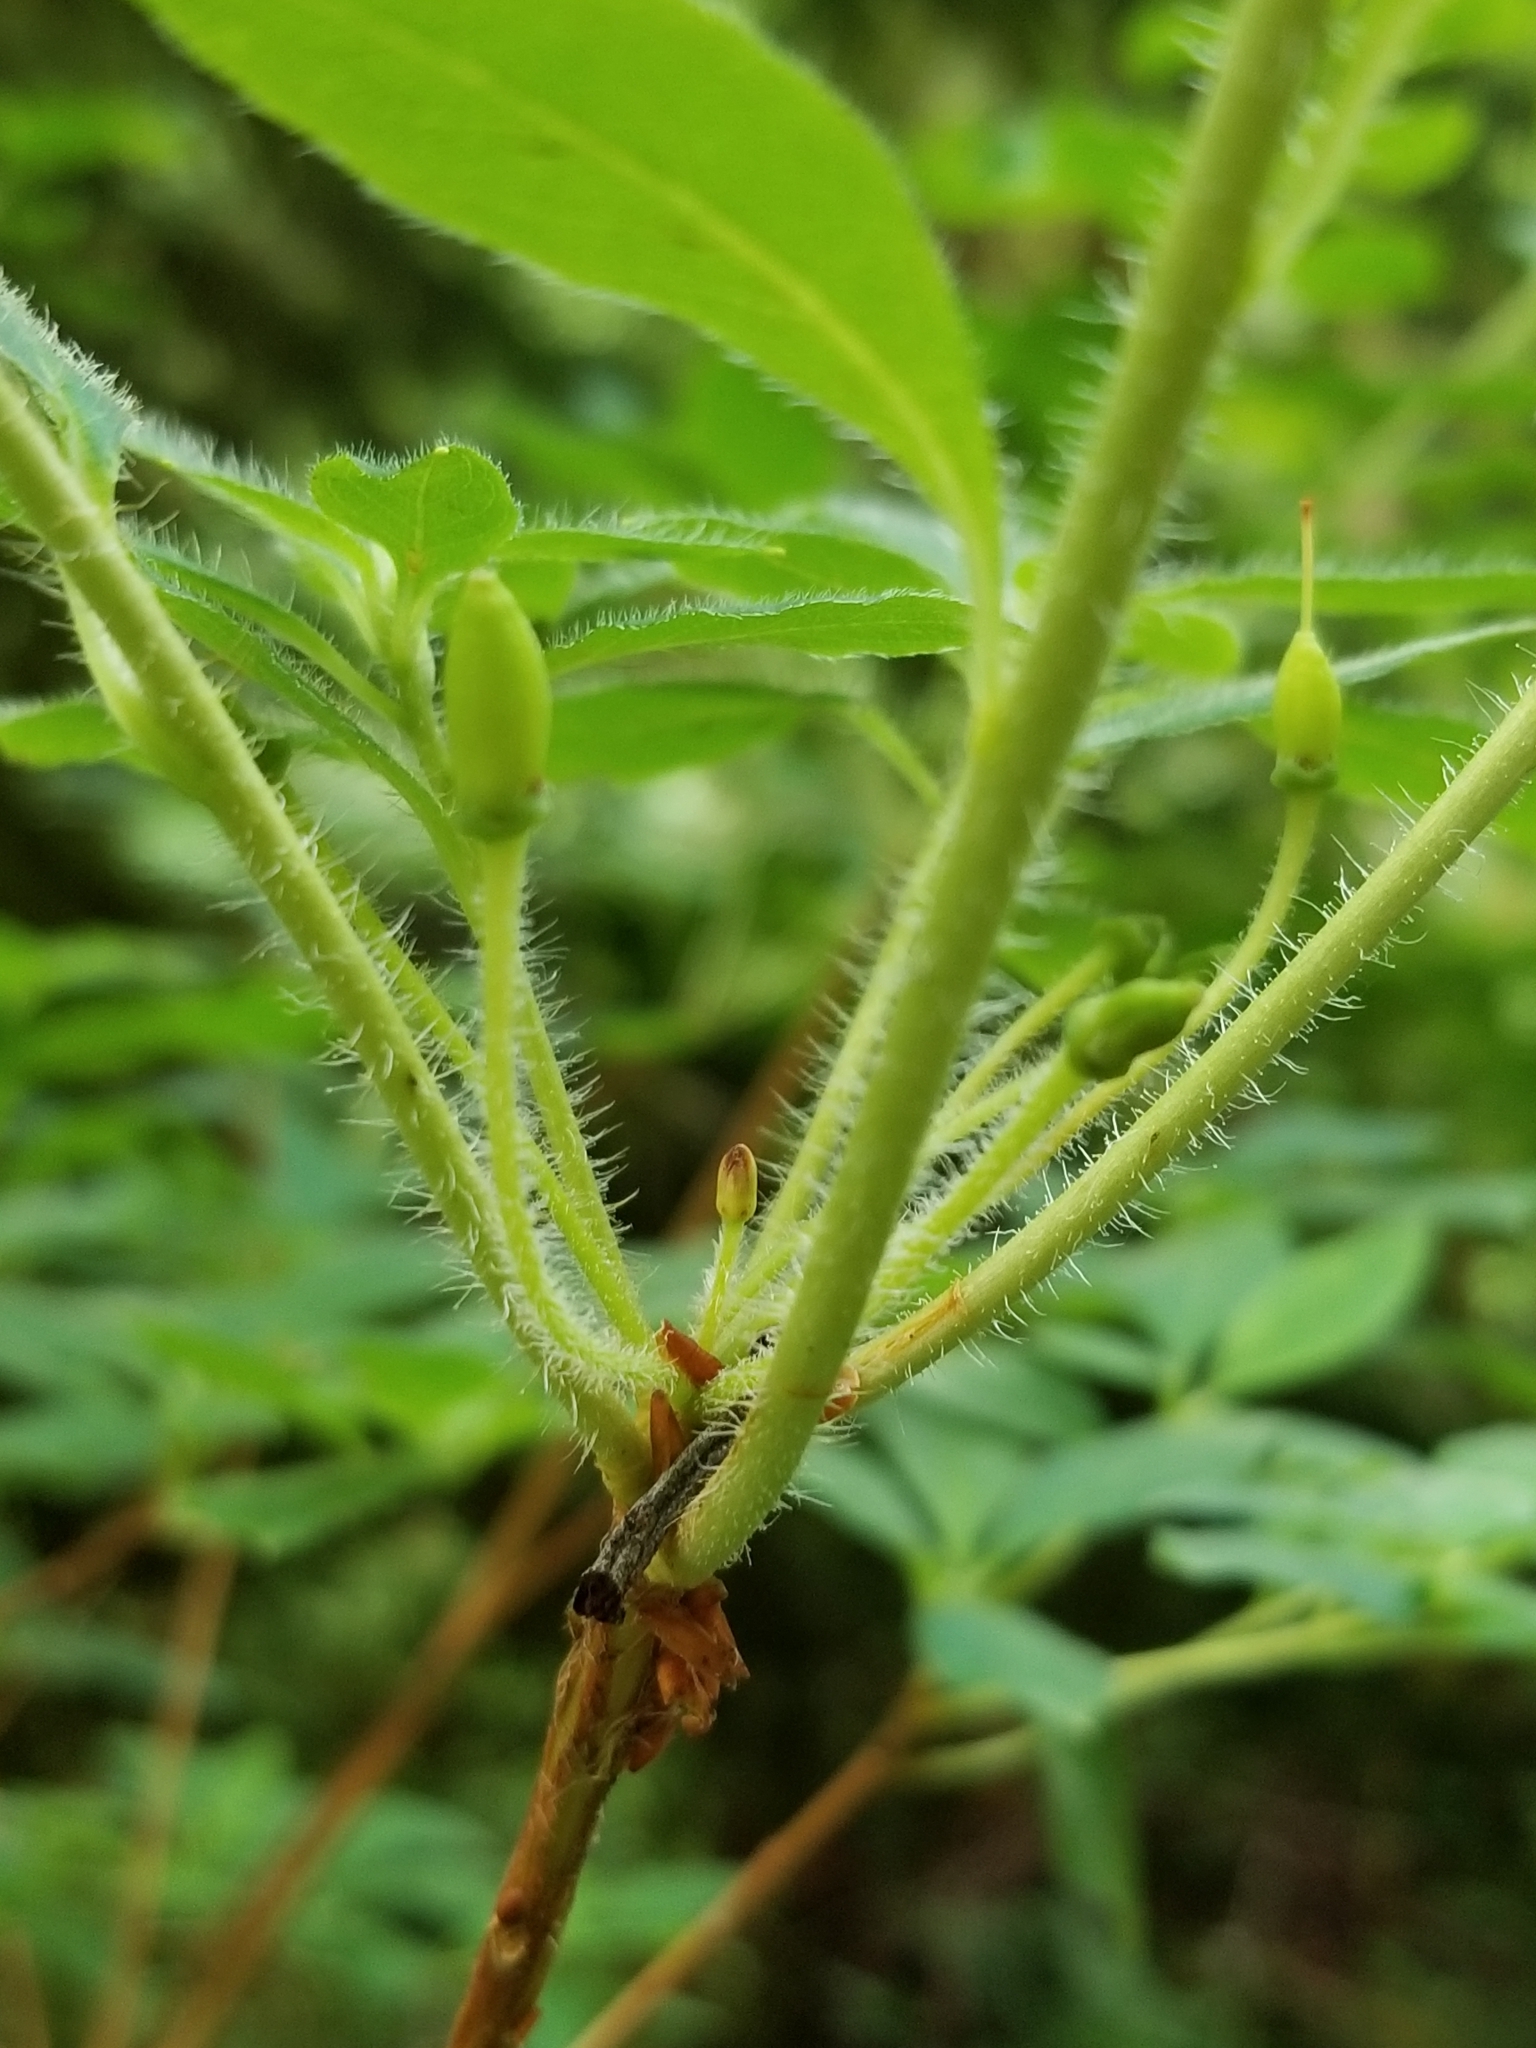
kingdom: Plantae
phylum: Tracheophyta
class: Magnoliopsida
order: Ericales
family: Ericaceae
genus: Rhododendron
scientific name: Rhododendron menziesii
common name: Pacific menziesia
